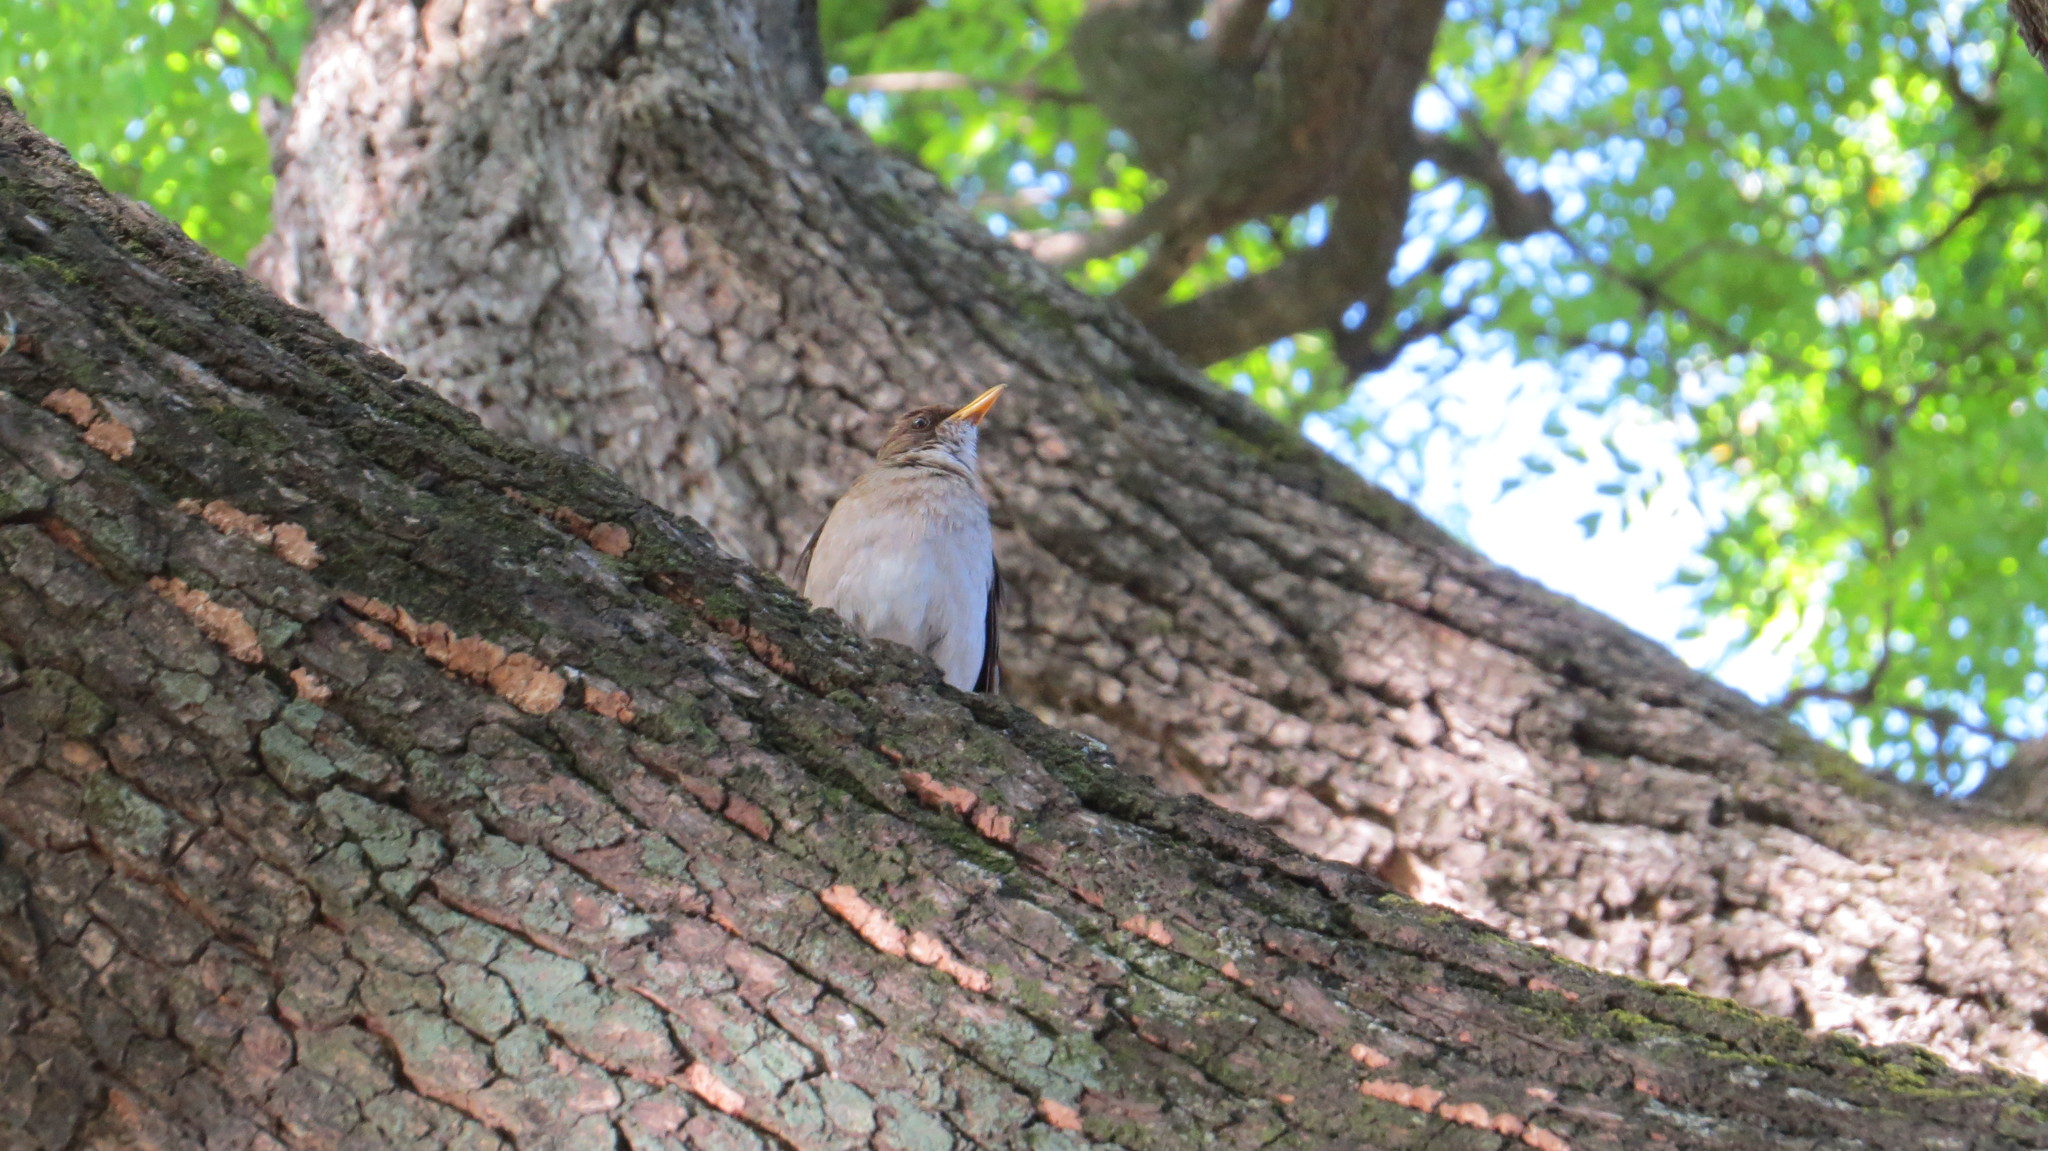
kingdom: Animalia
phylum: Chordata
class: Aves
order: Passeriformes
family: Turdidae
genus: Turdus
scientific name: Turdus amaurochalinus
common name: Creamy-bellied thrush
